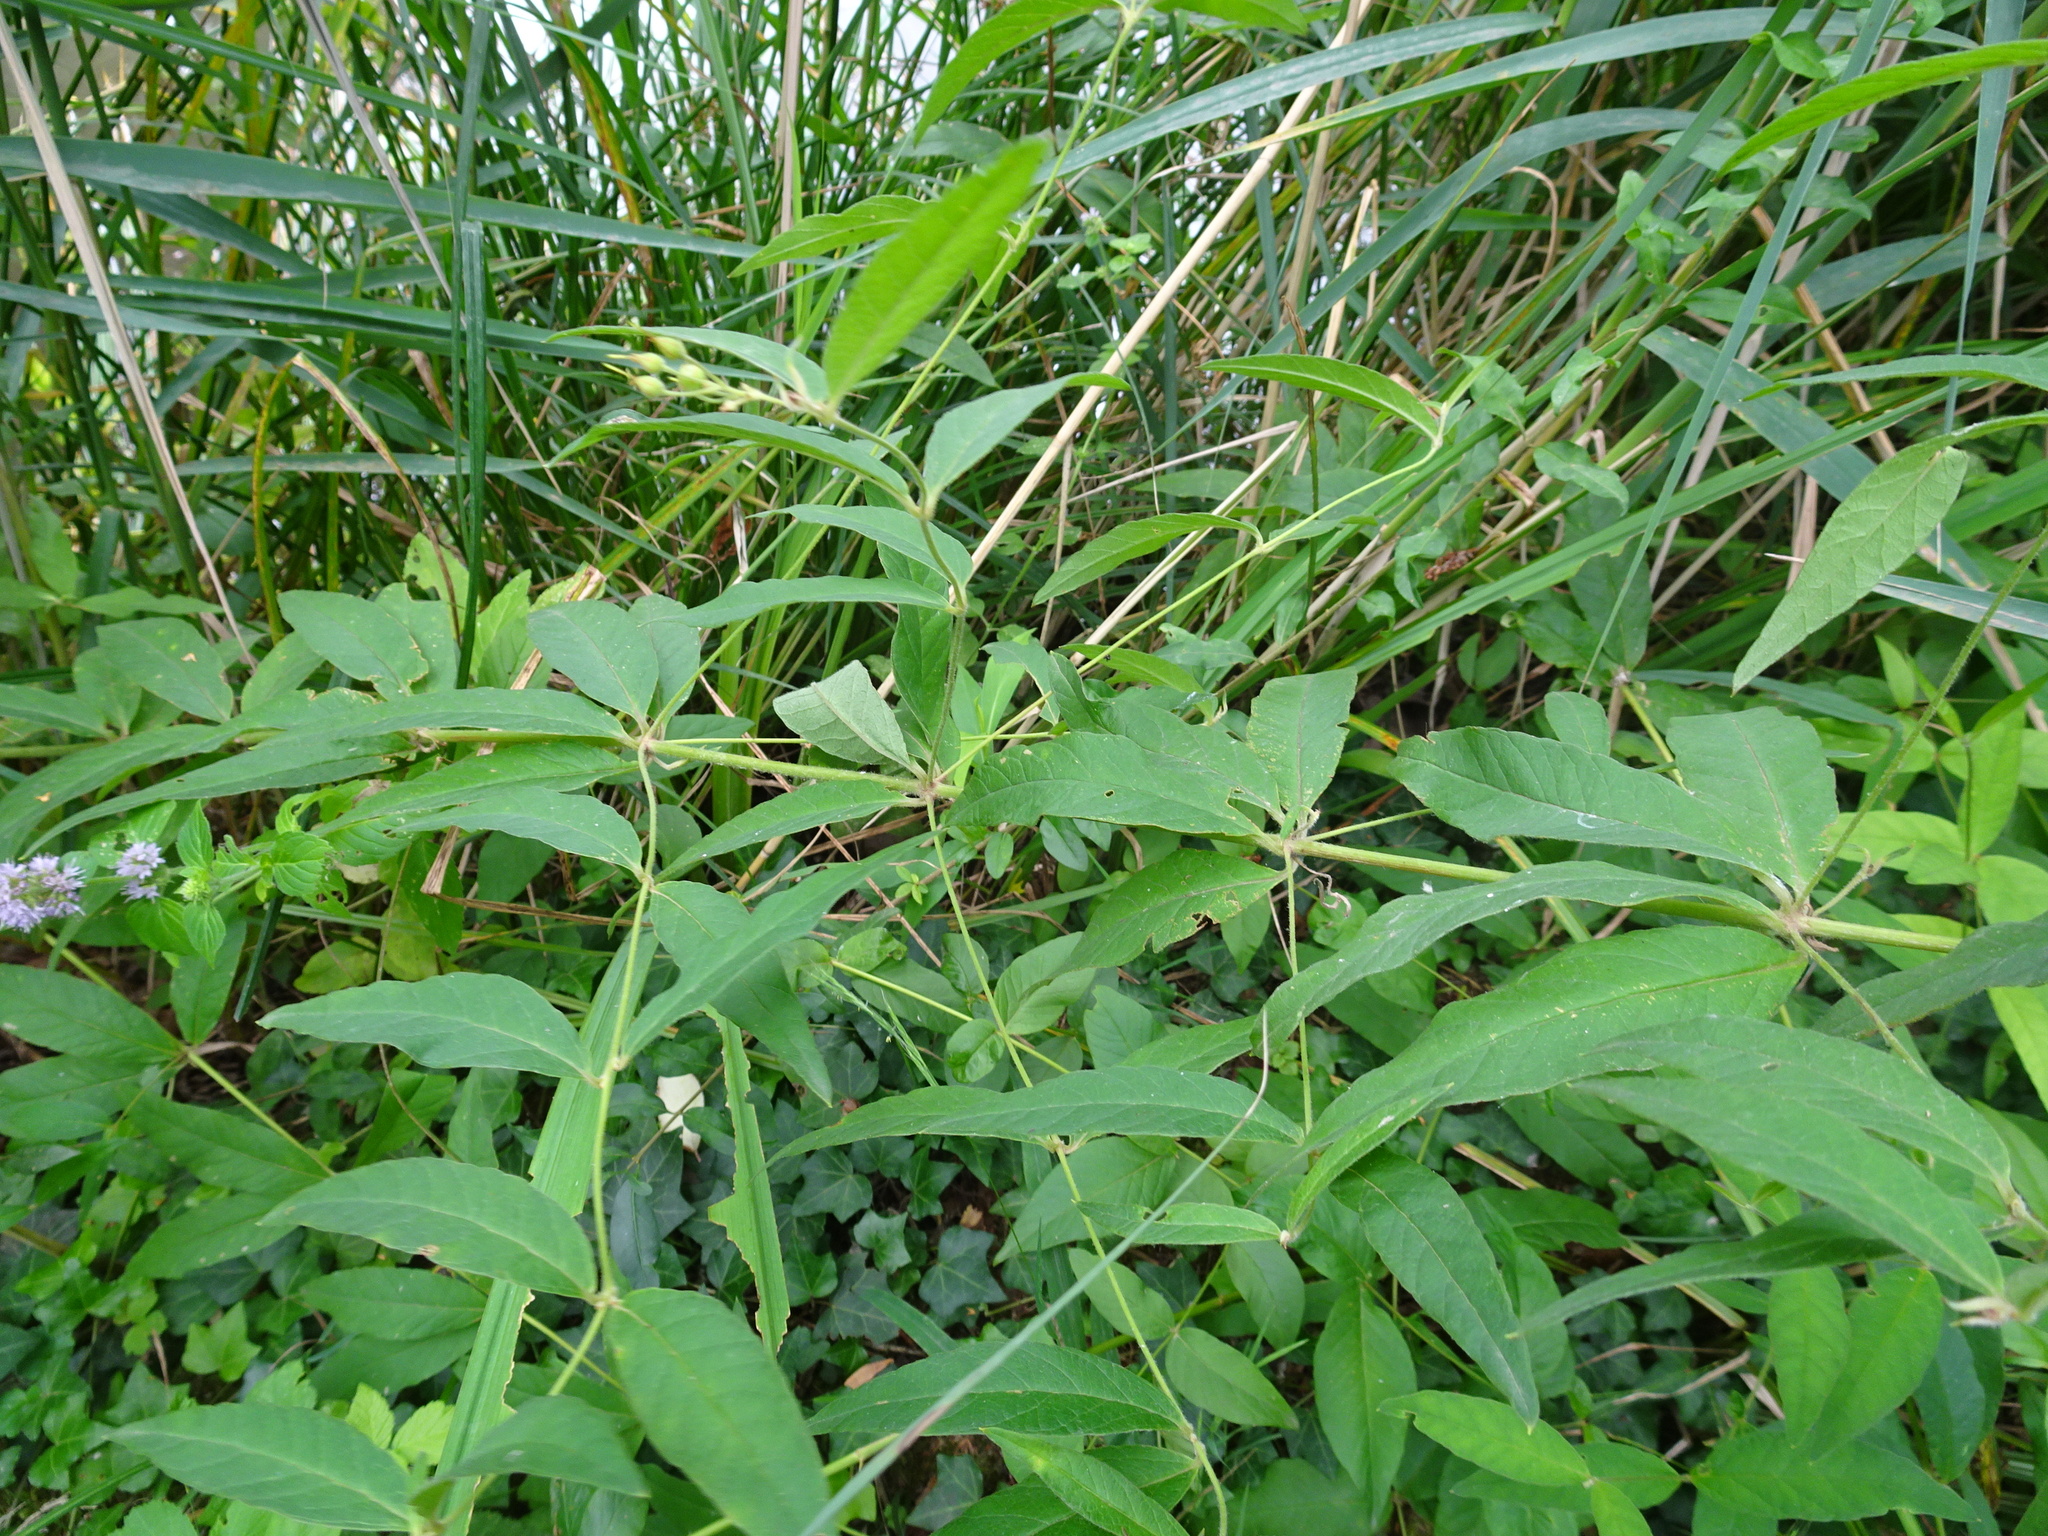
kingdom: Plantae
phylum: Tracheophyta
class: Magnoliopsida
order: Ericales
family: Primulaceae
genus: Lysimachia
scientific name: Lysimachia vulgaris
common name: Yellow loosestrife
